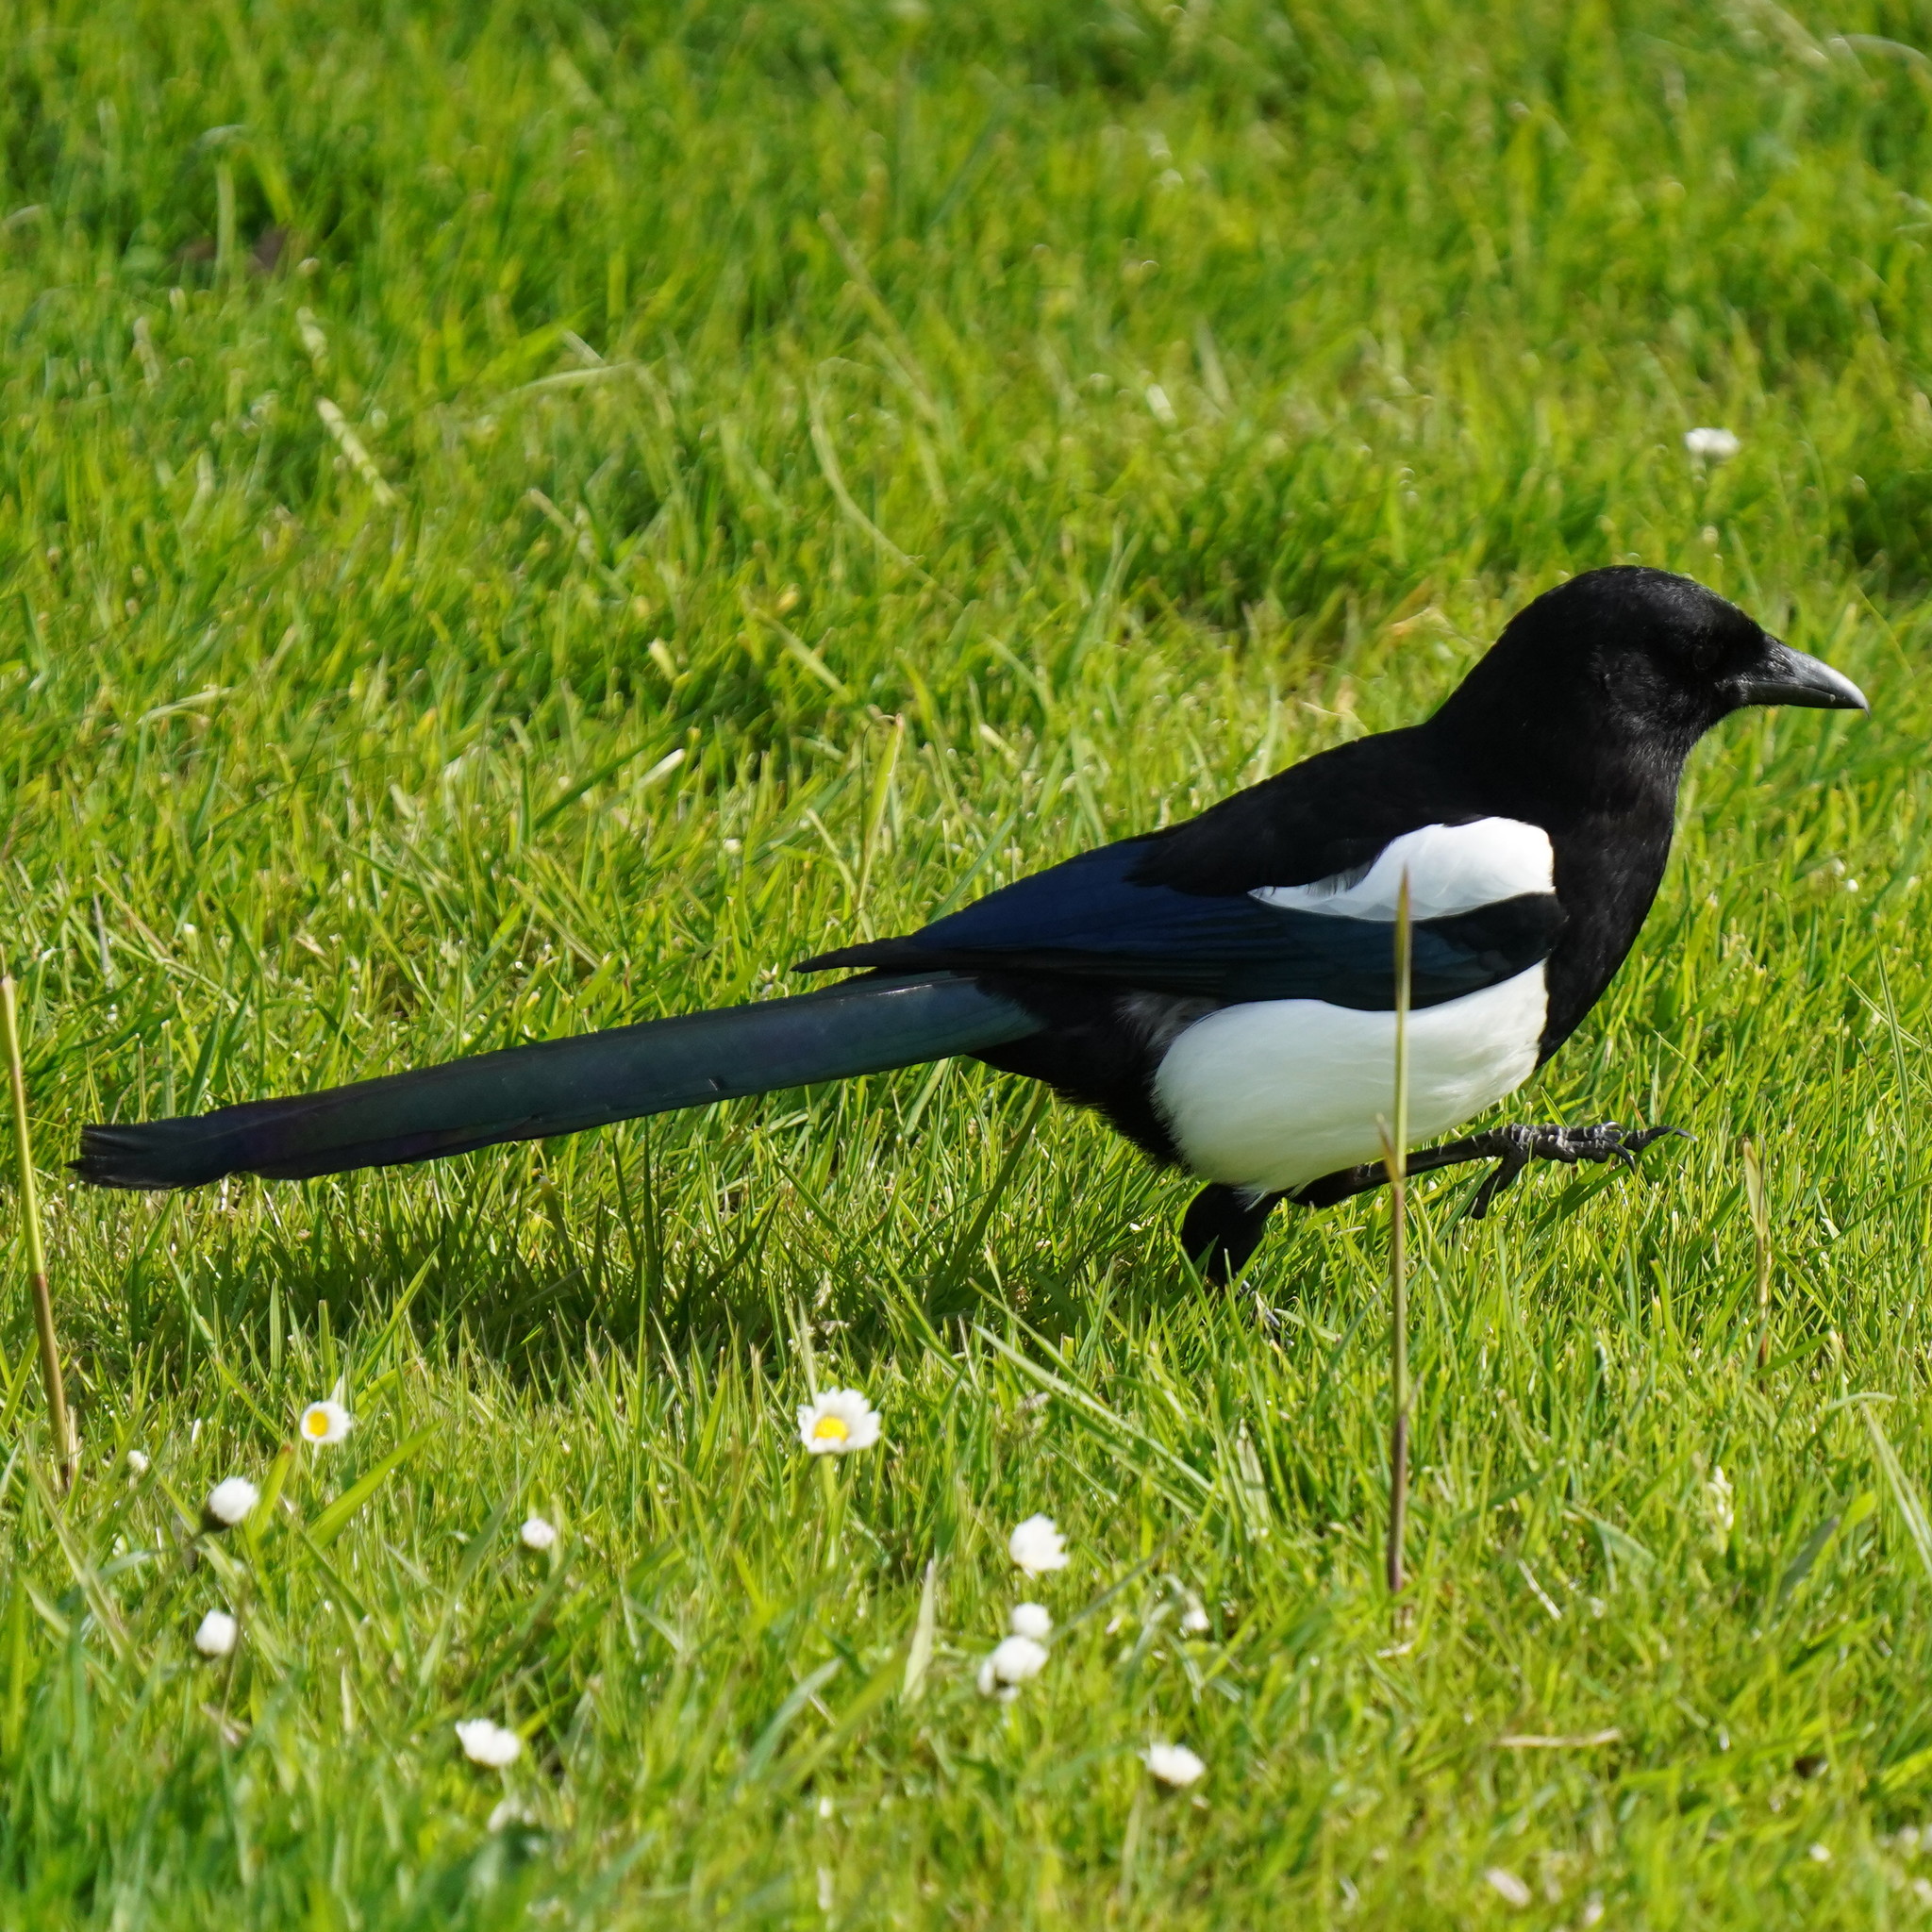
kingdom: Animalia
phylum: Chordata
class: Aves
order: Passeriformes
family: Corvidae
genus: Pica
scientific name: Pica pica
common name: Eurasian magpie
